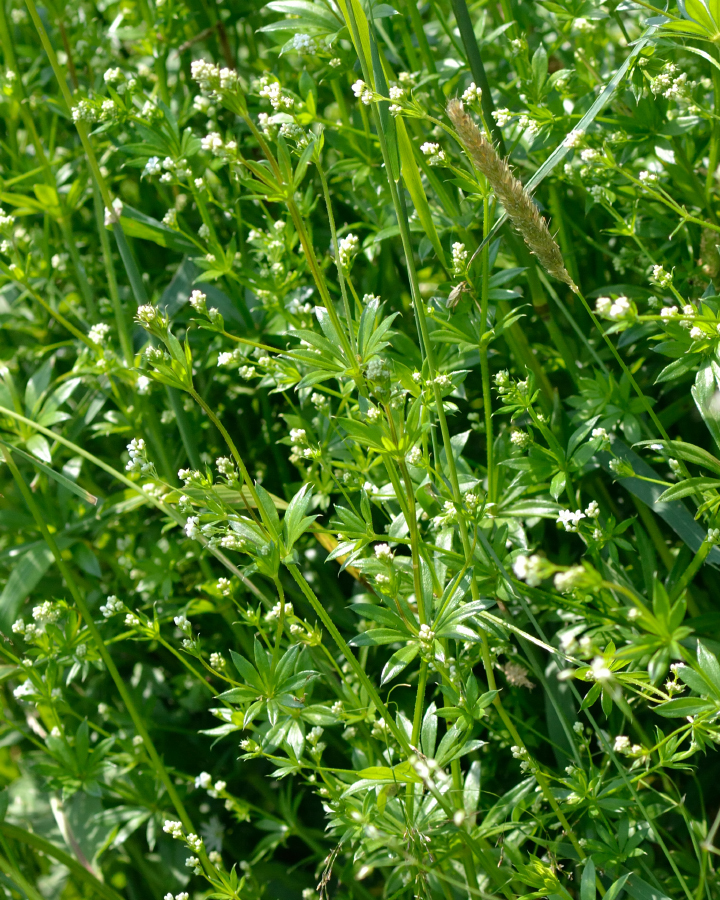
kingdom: Plantae
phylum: Tracheophyta
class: Magnoliopsida
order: Gentianales
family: Rubiaceae
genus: Galium
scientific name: Galium rivale
